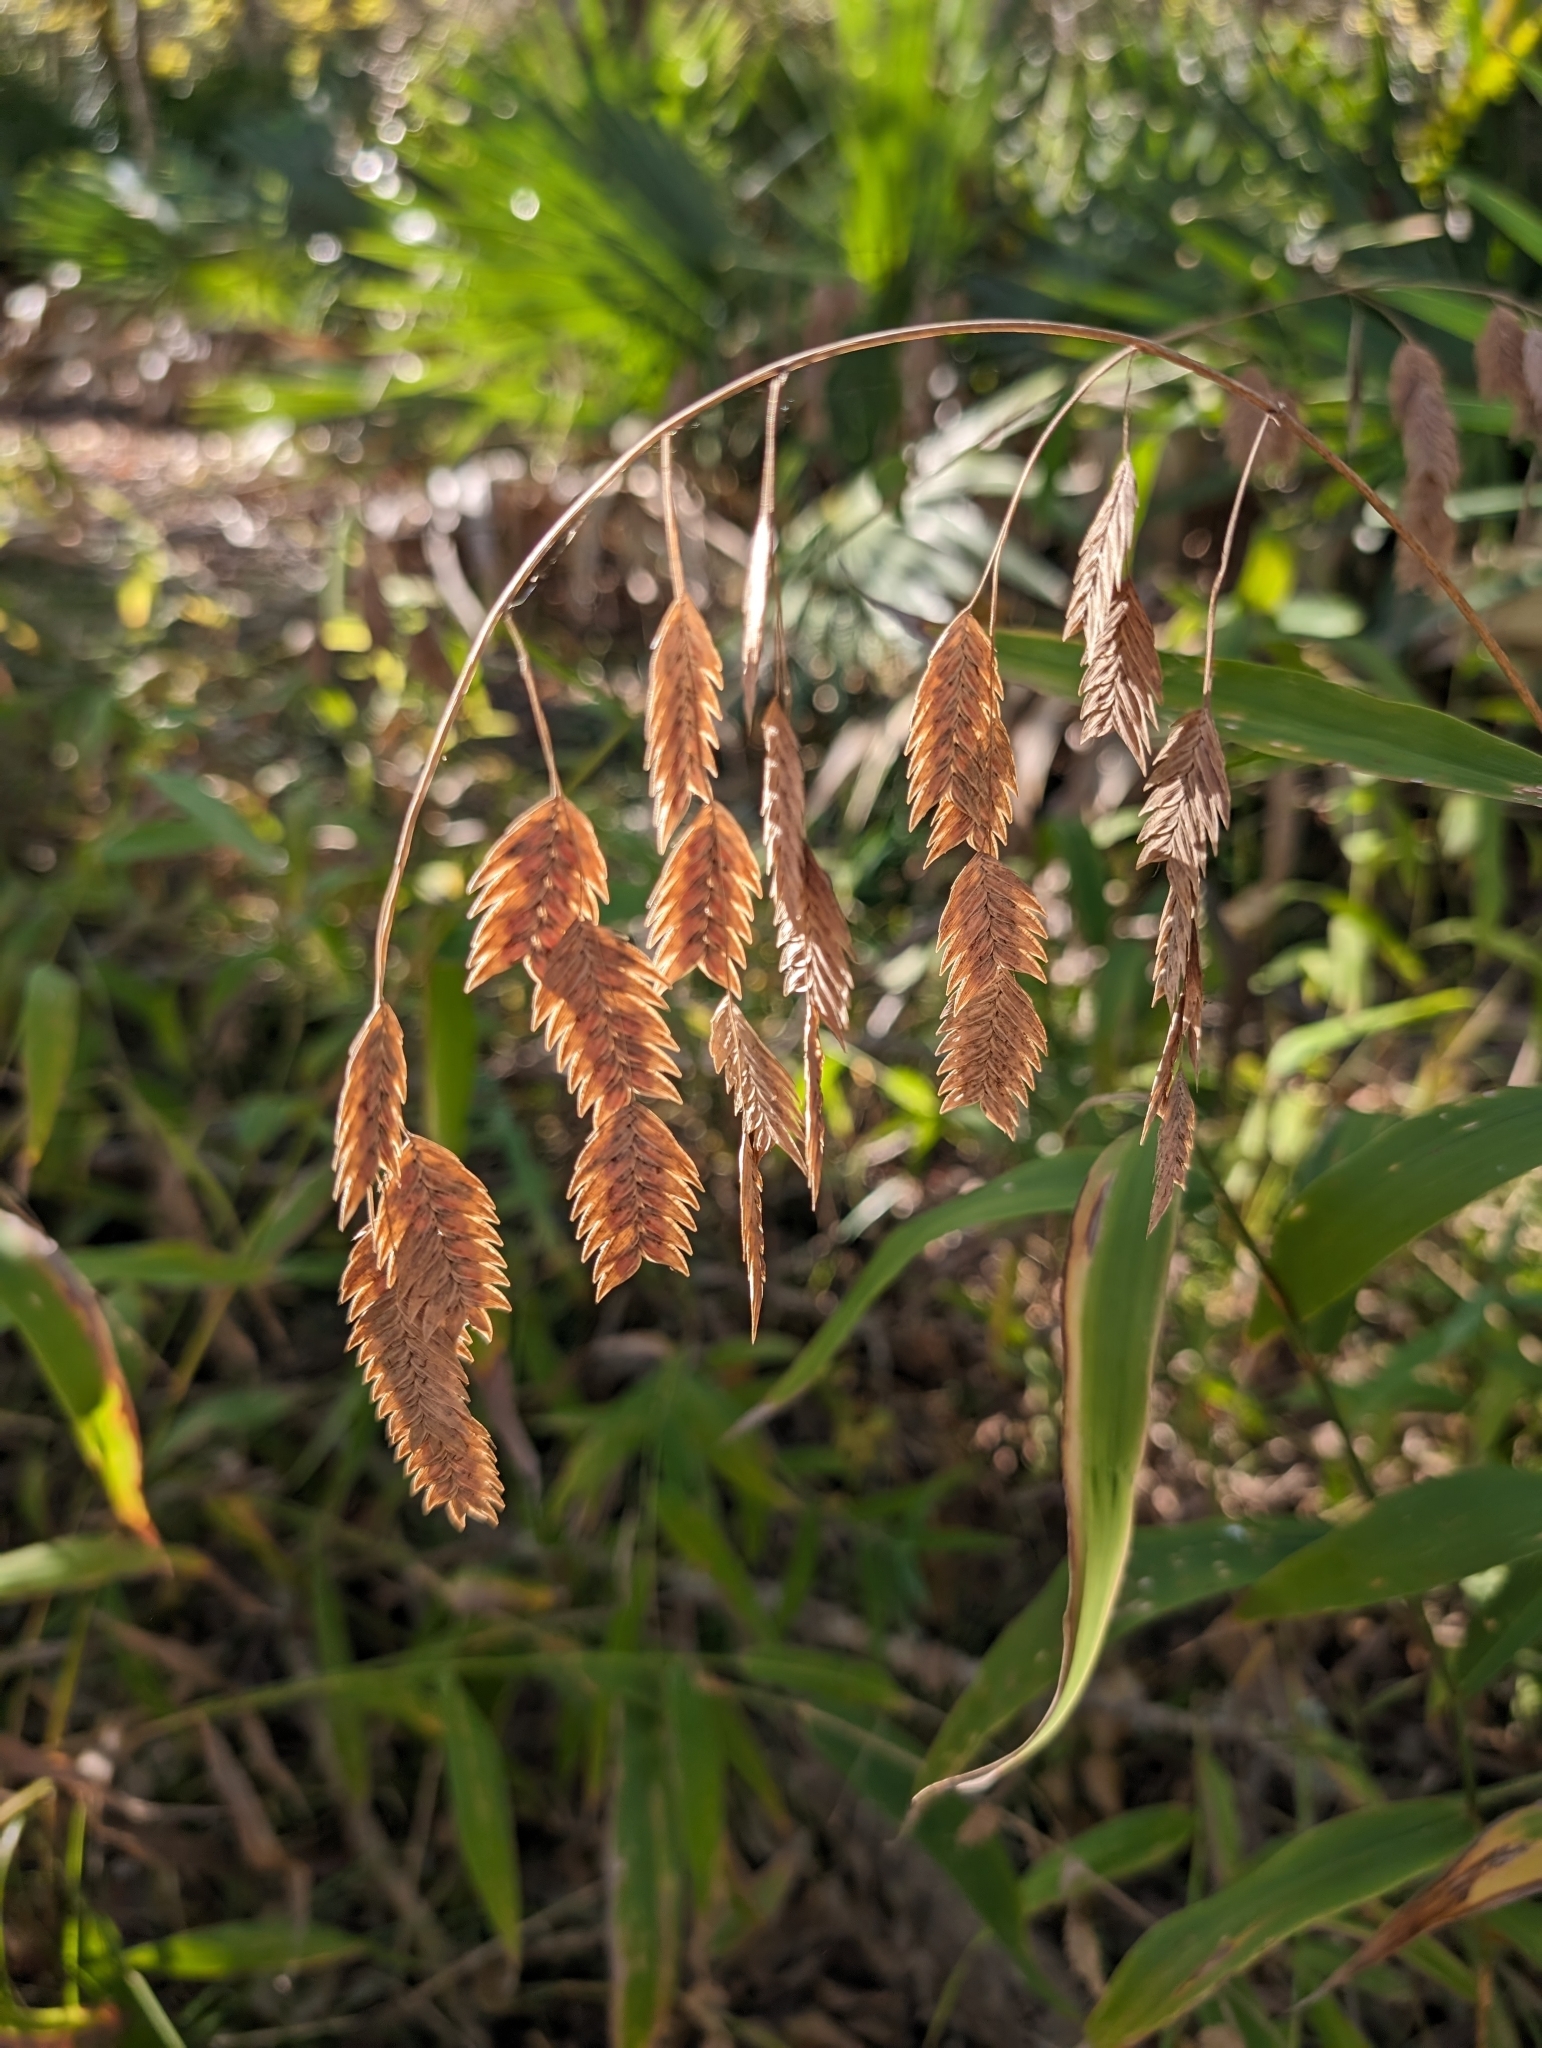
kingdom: Plantae
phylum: Tracheophyta
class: Liliopsida
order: Poales
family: Poaceae
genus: Chasmanthium
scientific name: Chasmanthium latifolium
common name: Broad-leaved chasmanthium
